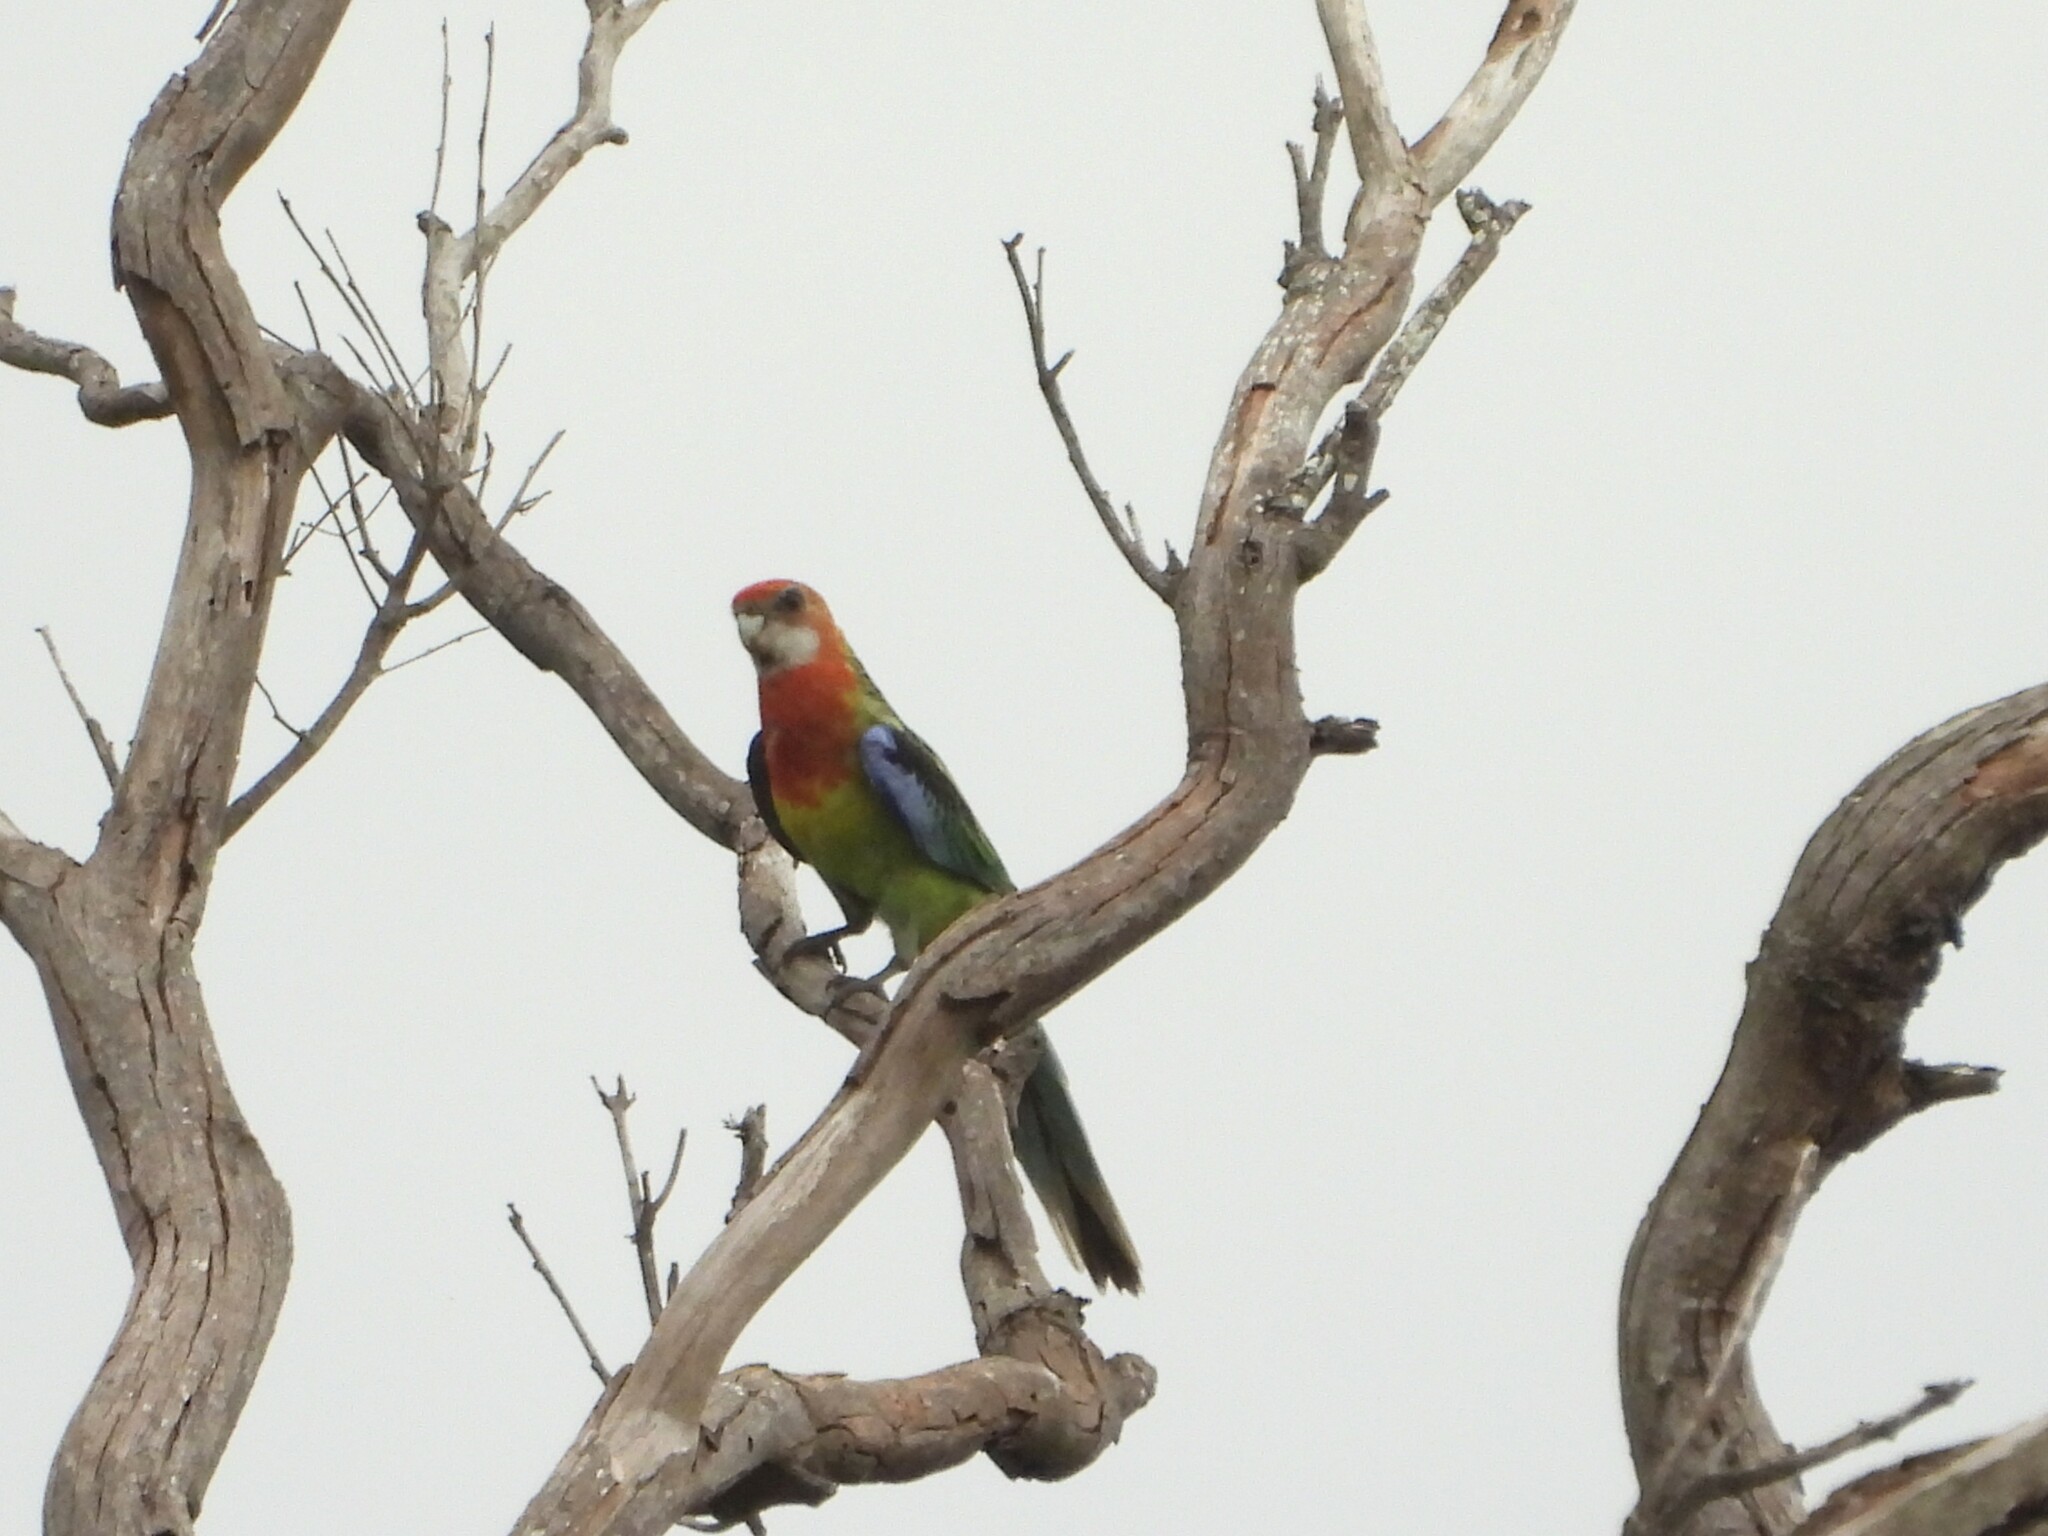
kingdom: Animalia
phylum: Chordata
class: Aves
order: Psittaciformes
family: Psittacidae
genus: Platycercus
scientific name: Platycercus eximius
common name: Eastern rosella
